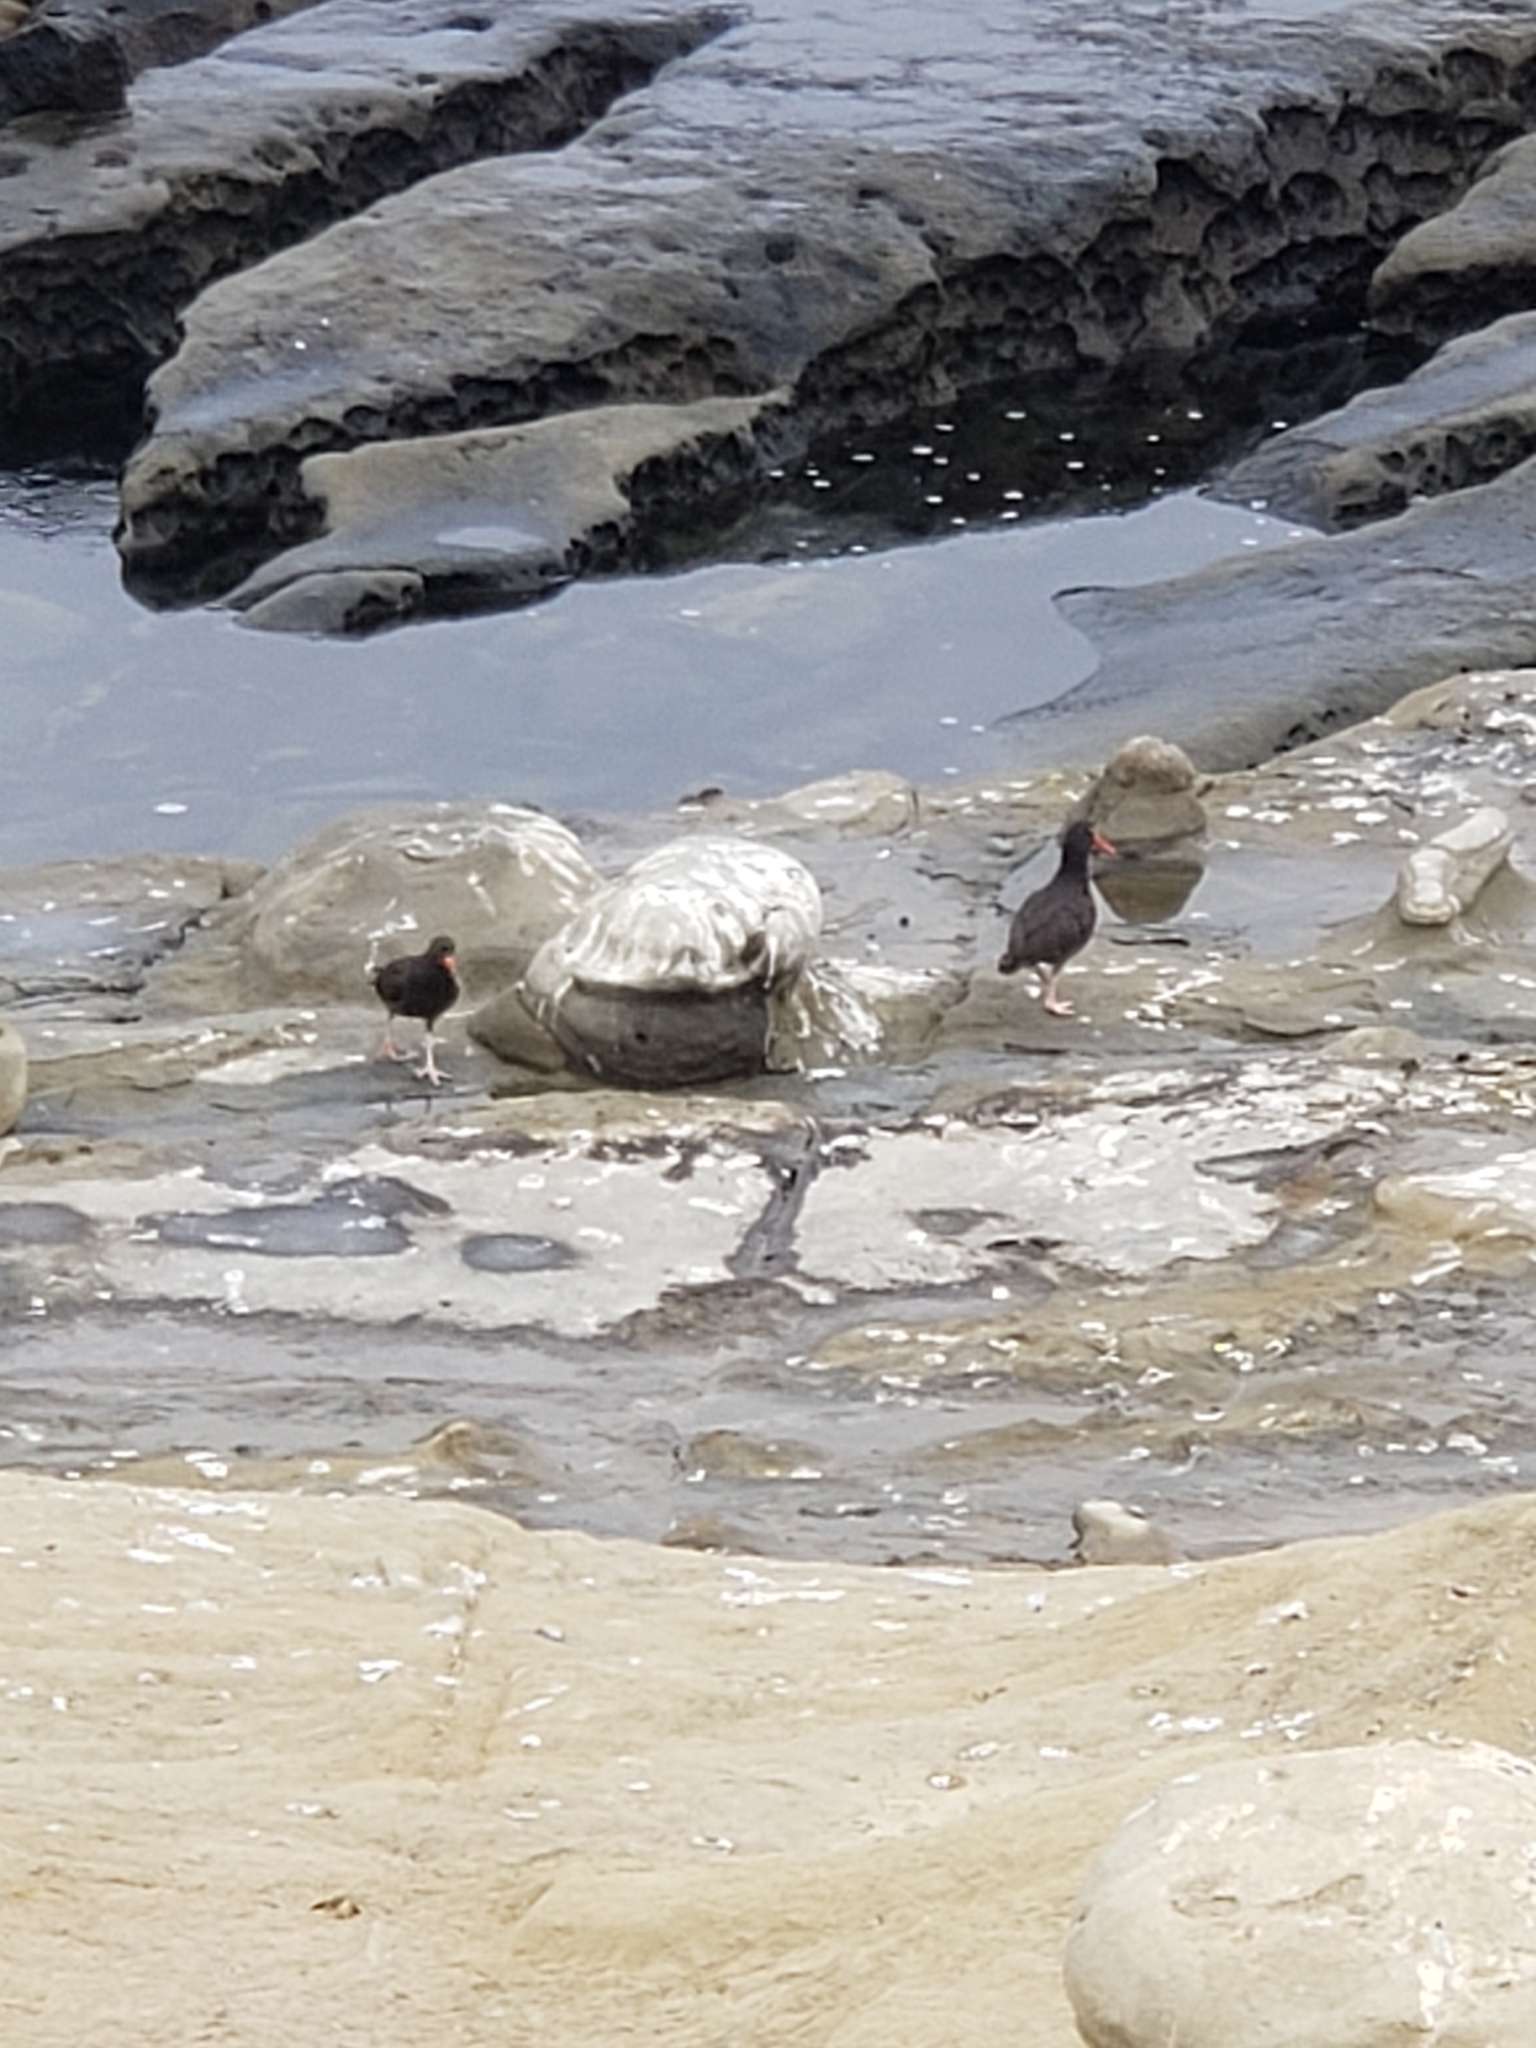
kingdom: Animalia
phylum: Chordata
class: Aves
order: Charadriiformes
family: Haematopodidae
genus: Haematopus
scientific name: Haematopus bachmani
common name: Black oystercatcher
